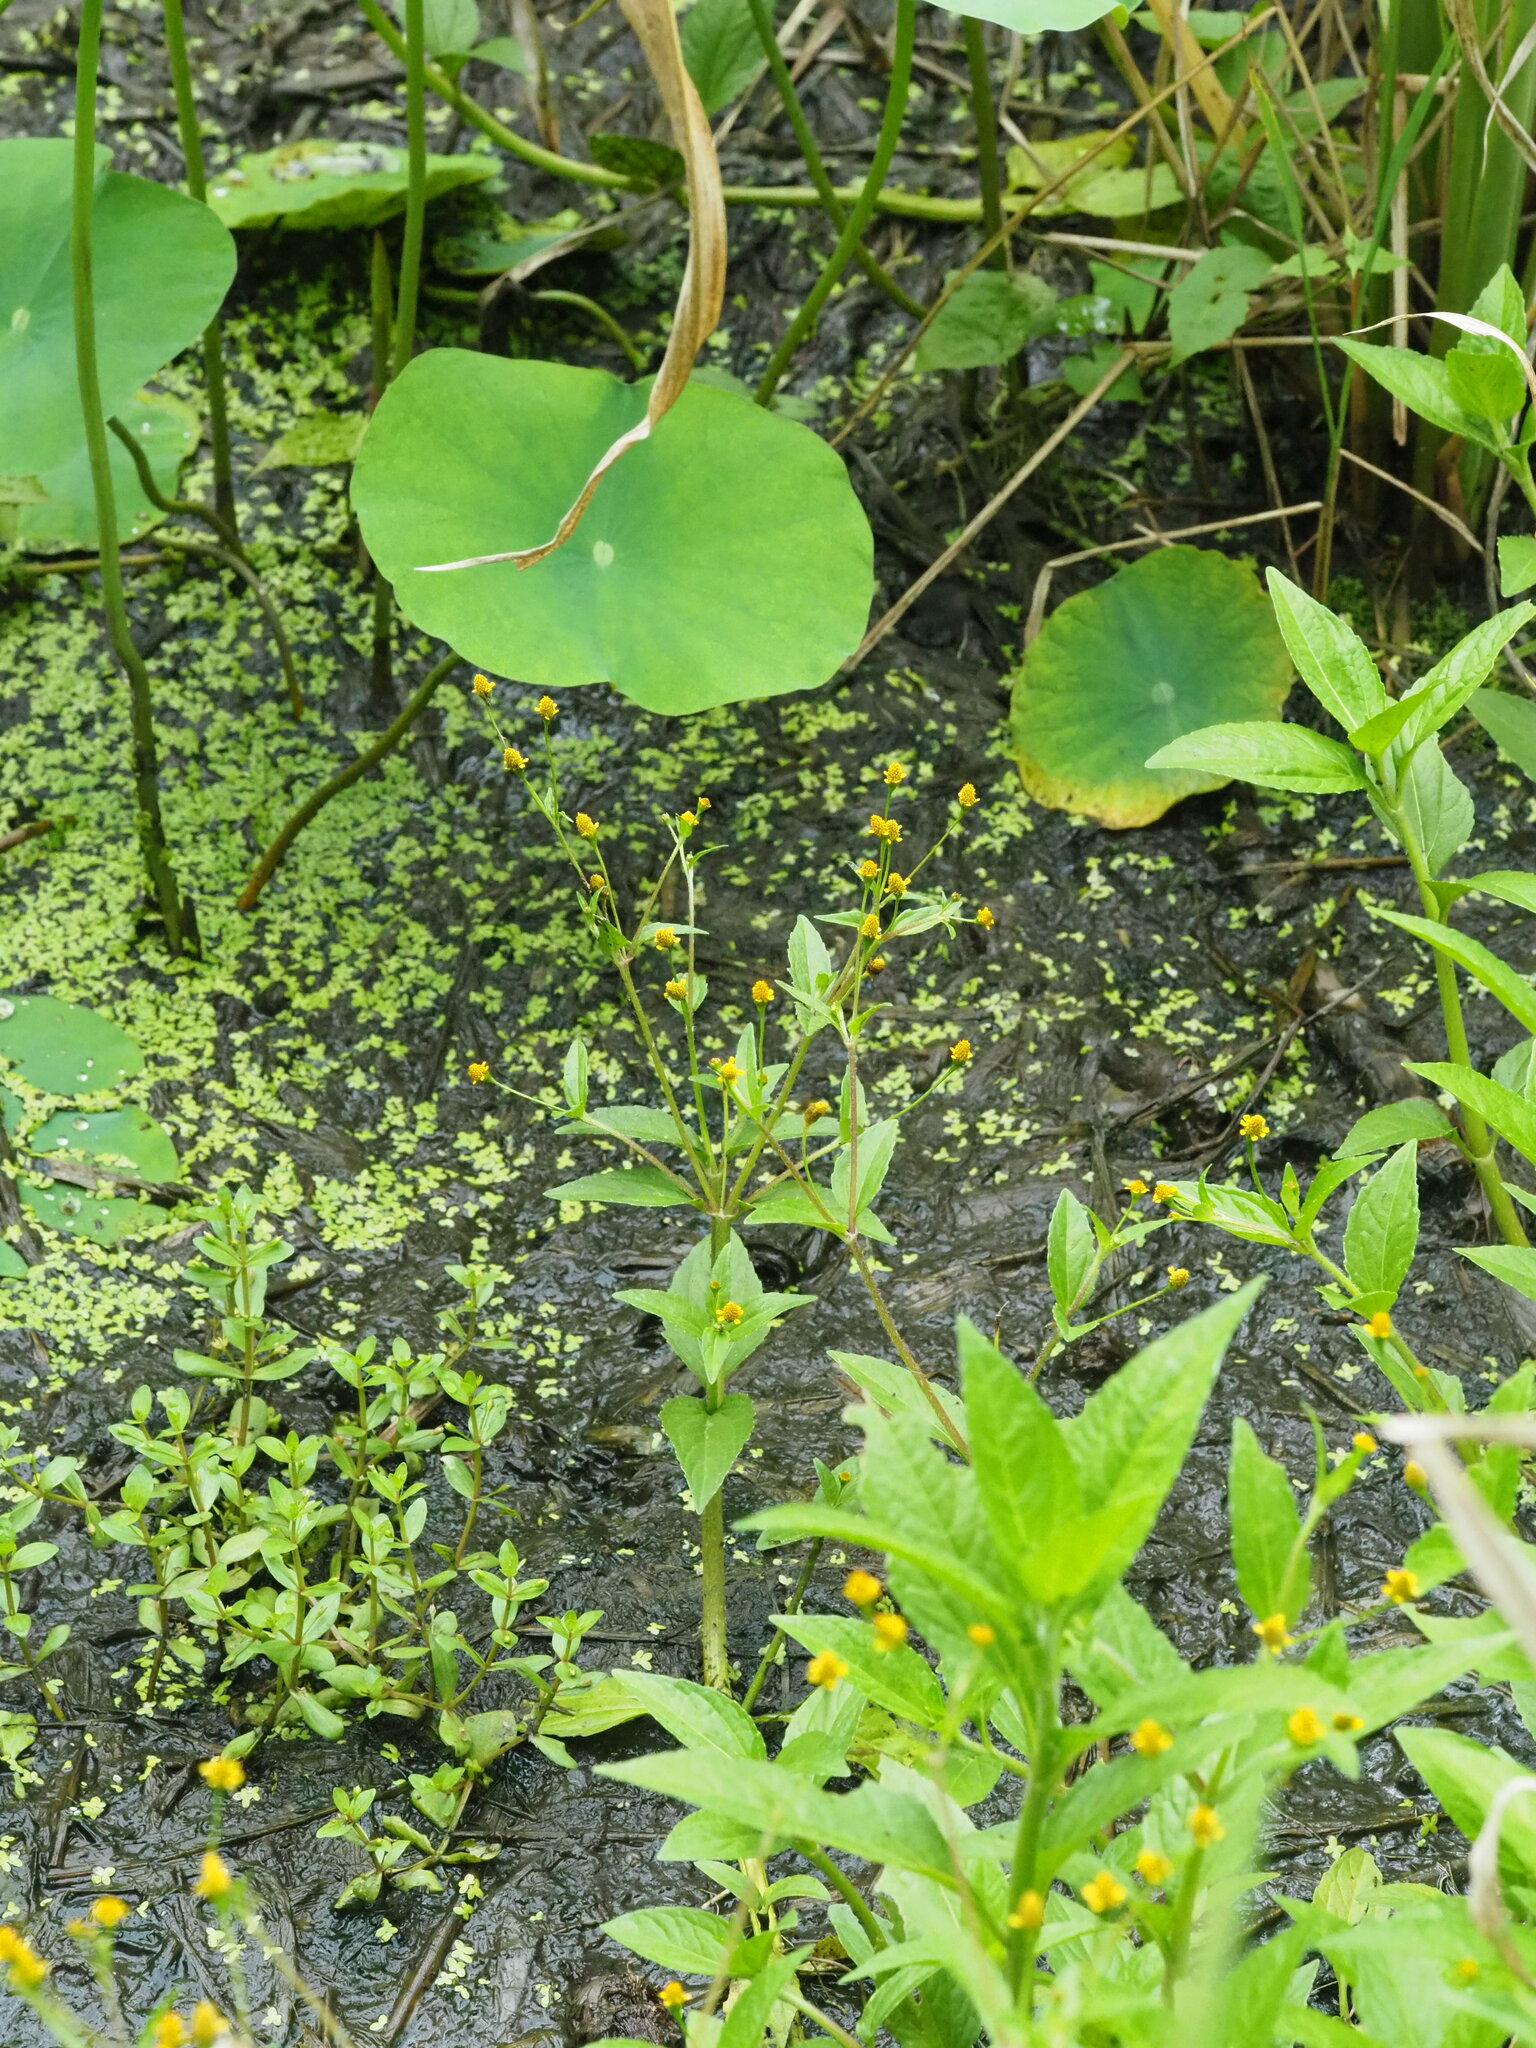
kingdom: Plantae
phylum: Tracheophyta
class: Magnoliopsida
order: Asterales
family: Asteraceae
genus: Acmella
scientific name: Acmella uliginosa
